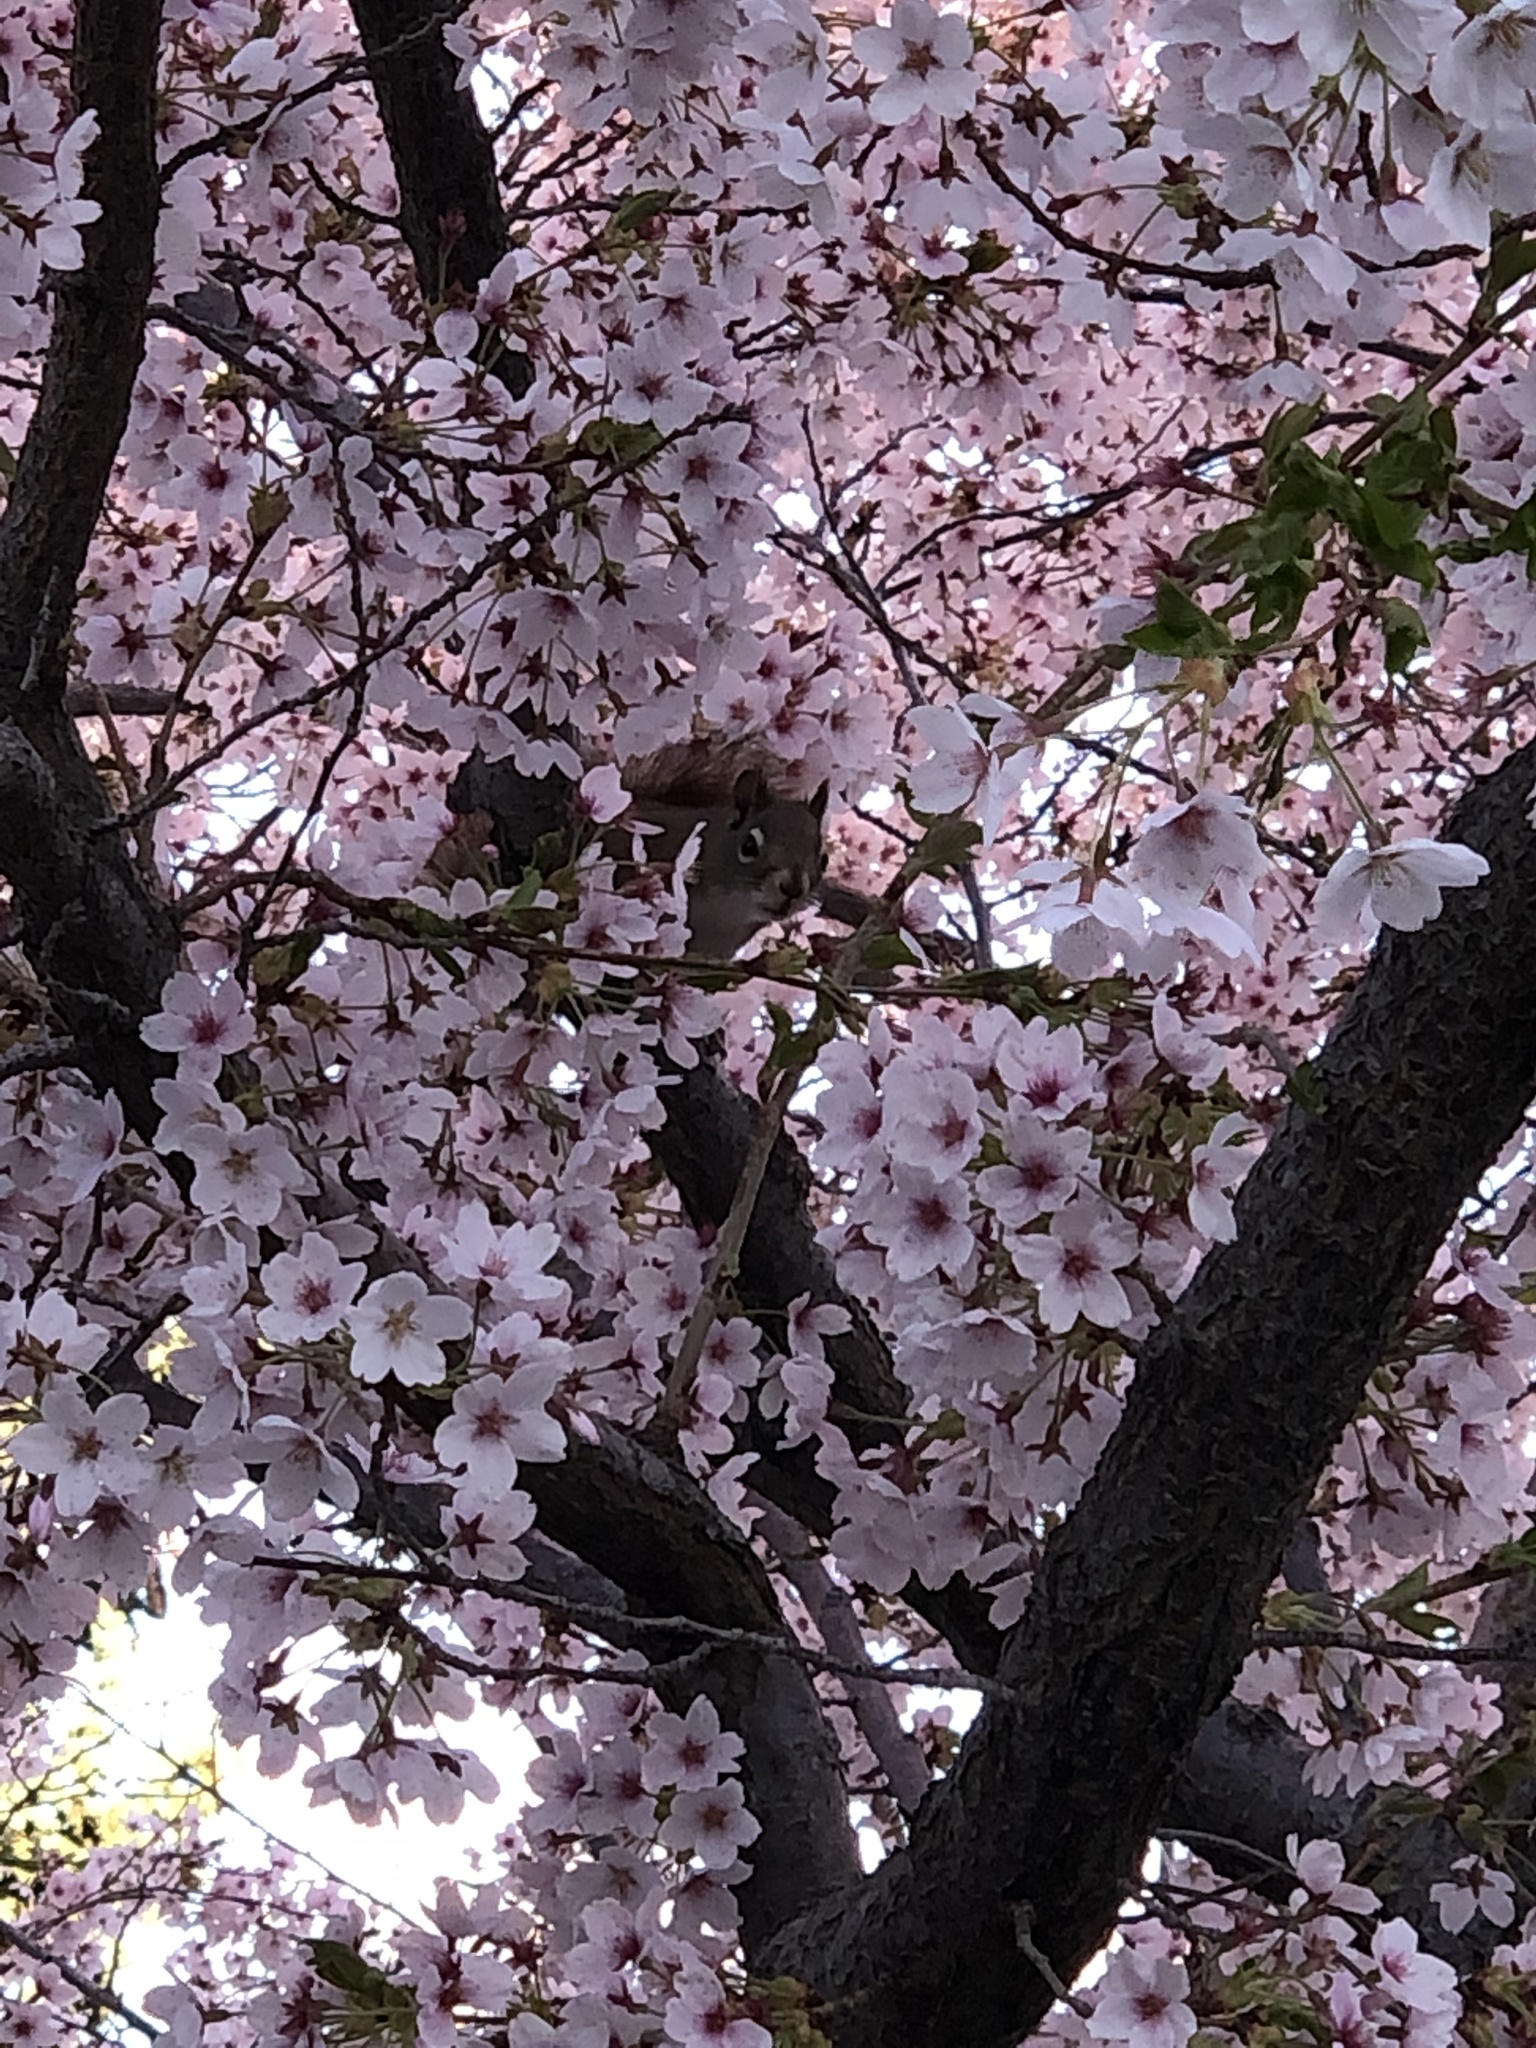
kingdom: Animalia
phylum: Chordata
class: Mammalia
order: Rodentia
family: Sciuridae
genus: Tamiasciurus
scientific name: Tamiasciurus hudsonicus
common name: Red squirrel
